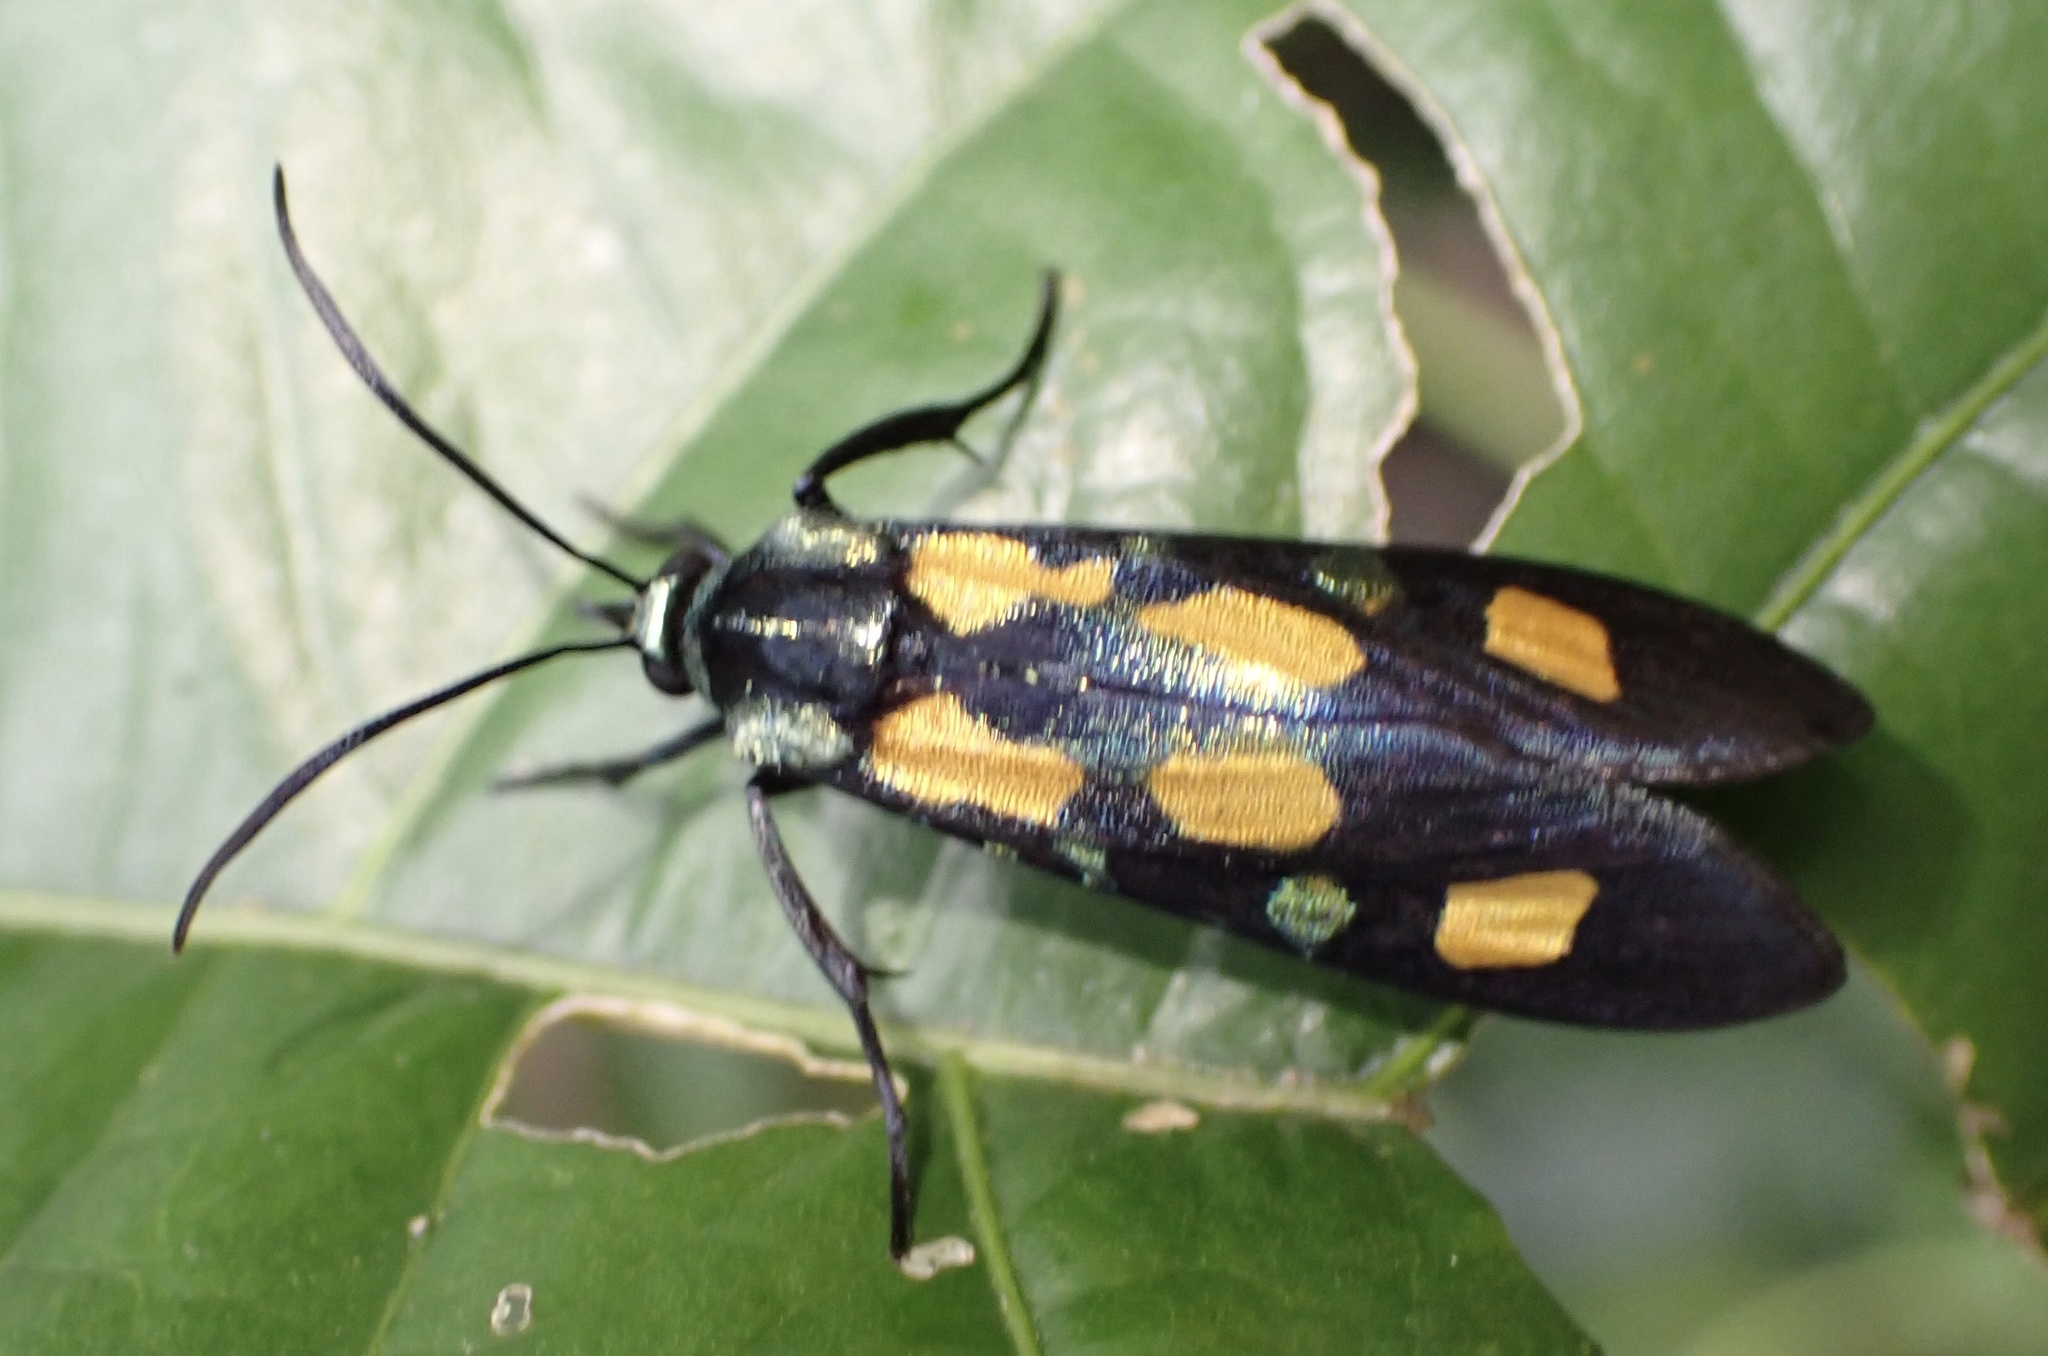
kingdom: Animalia
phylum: Arthropoda
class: Insecta
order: Lepidoptera
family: Thyrididae
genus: Marmax
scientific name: Marmax hyparchus
